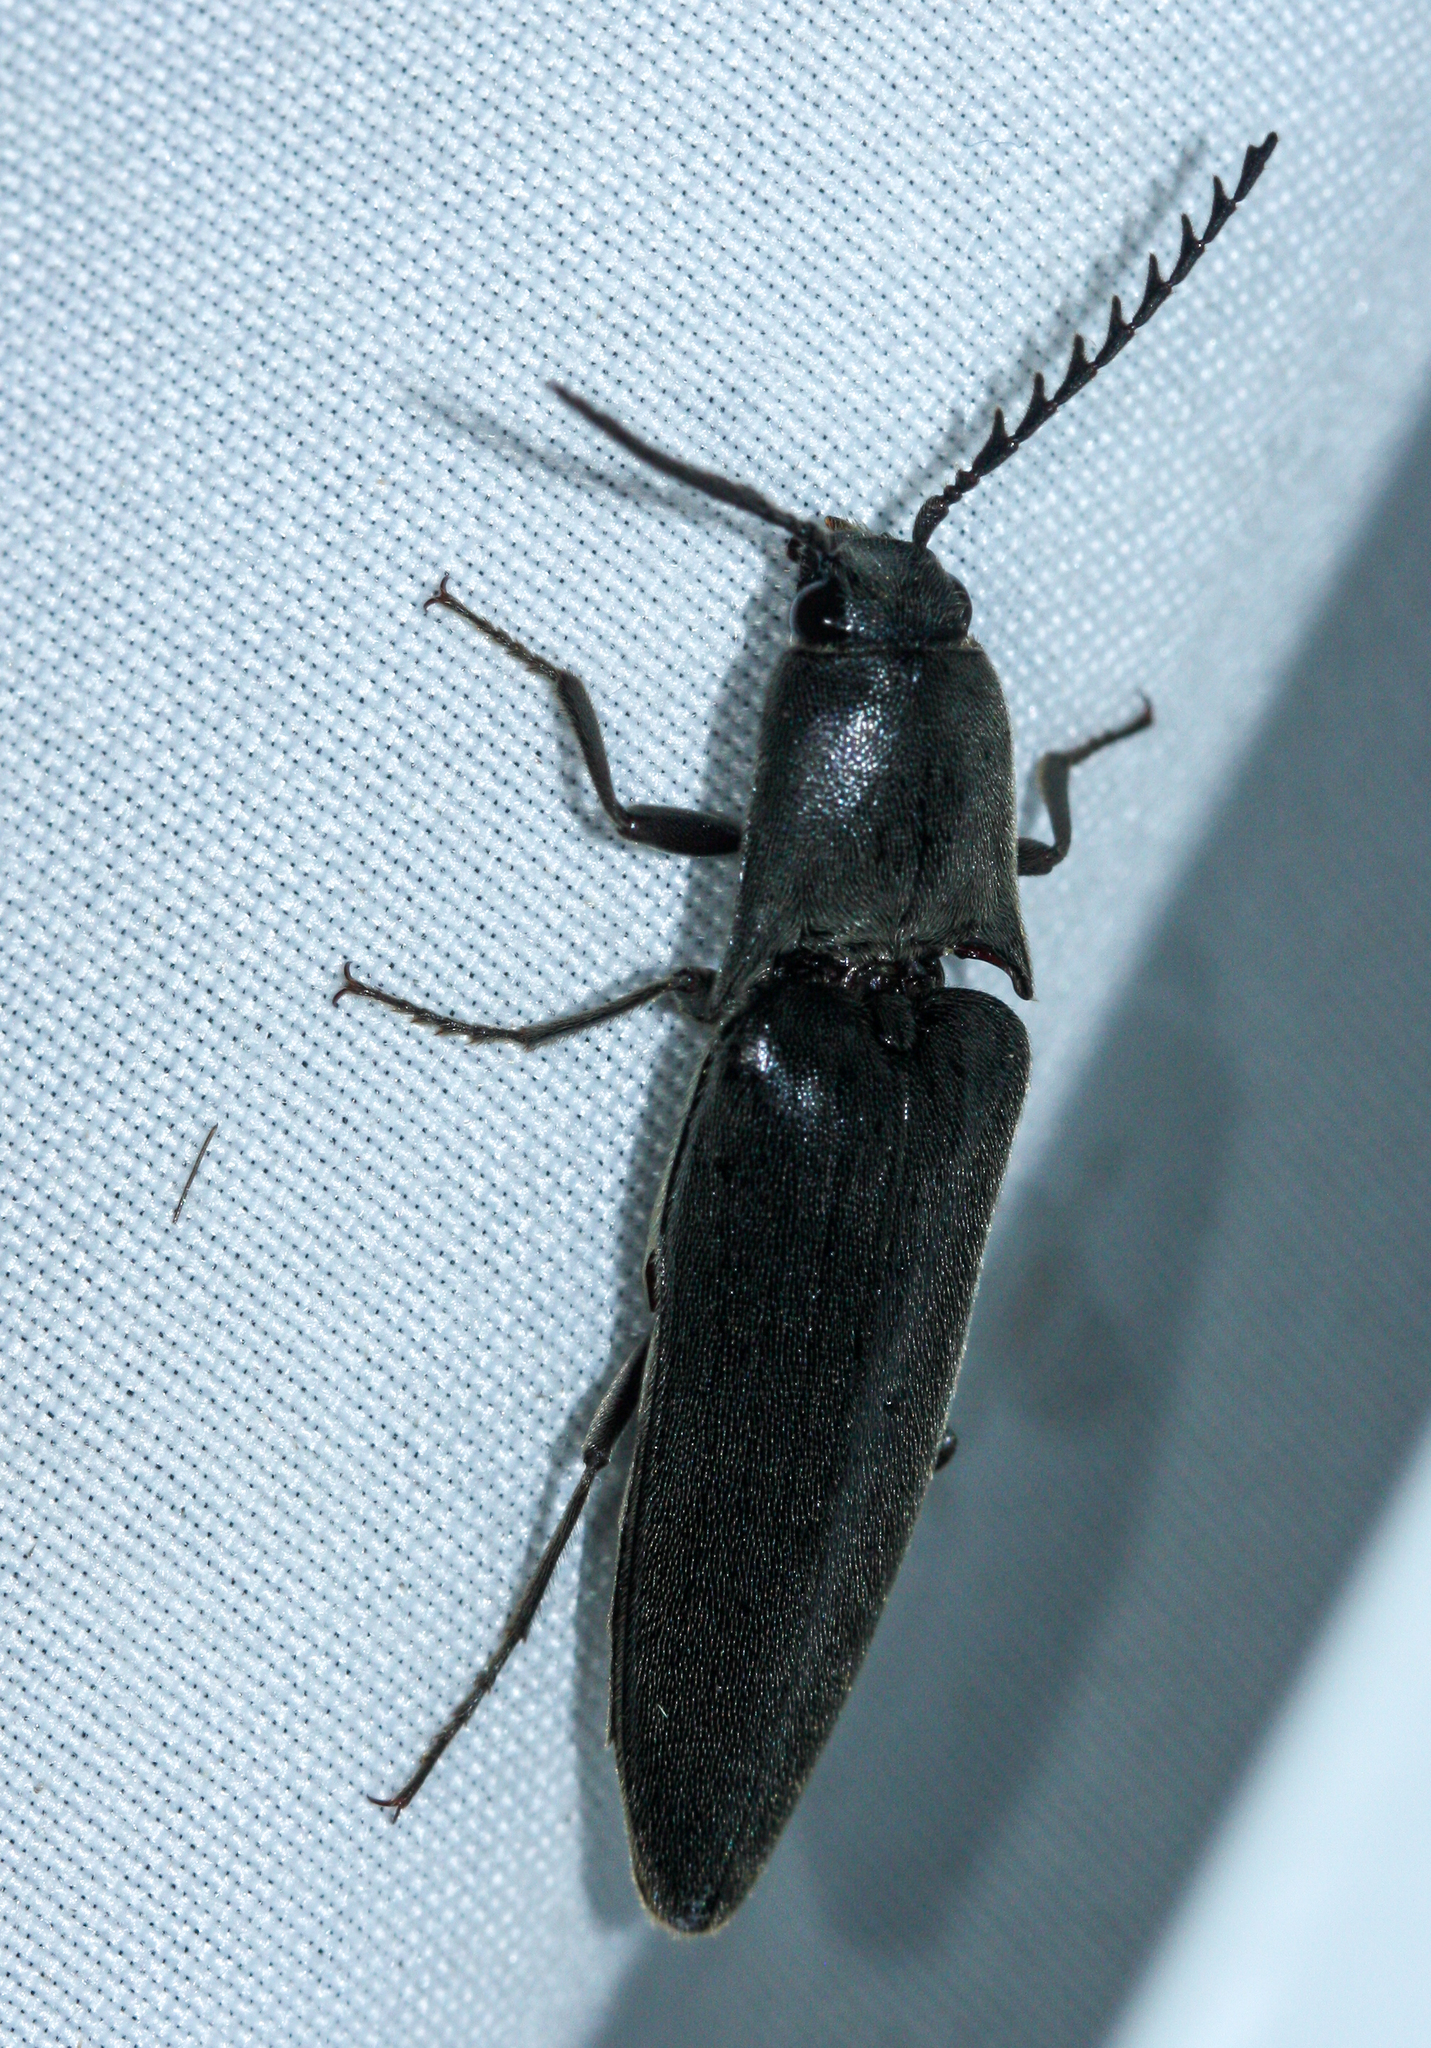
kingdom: Animalia
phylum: Arthropoda
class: Insecta
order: Coleoptera
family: Elateridae
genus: Orthostethus
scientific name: Orthostethus
